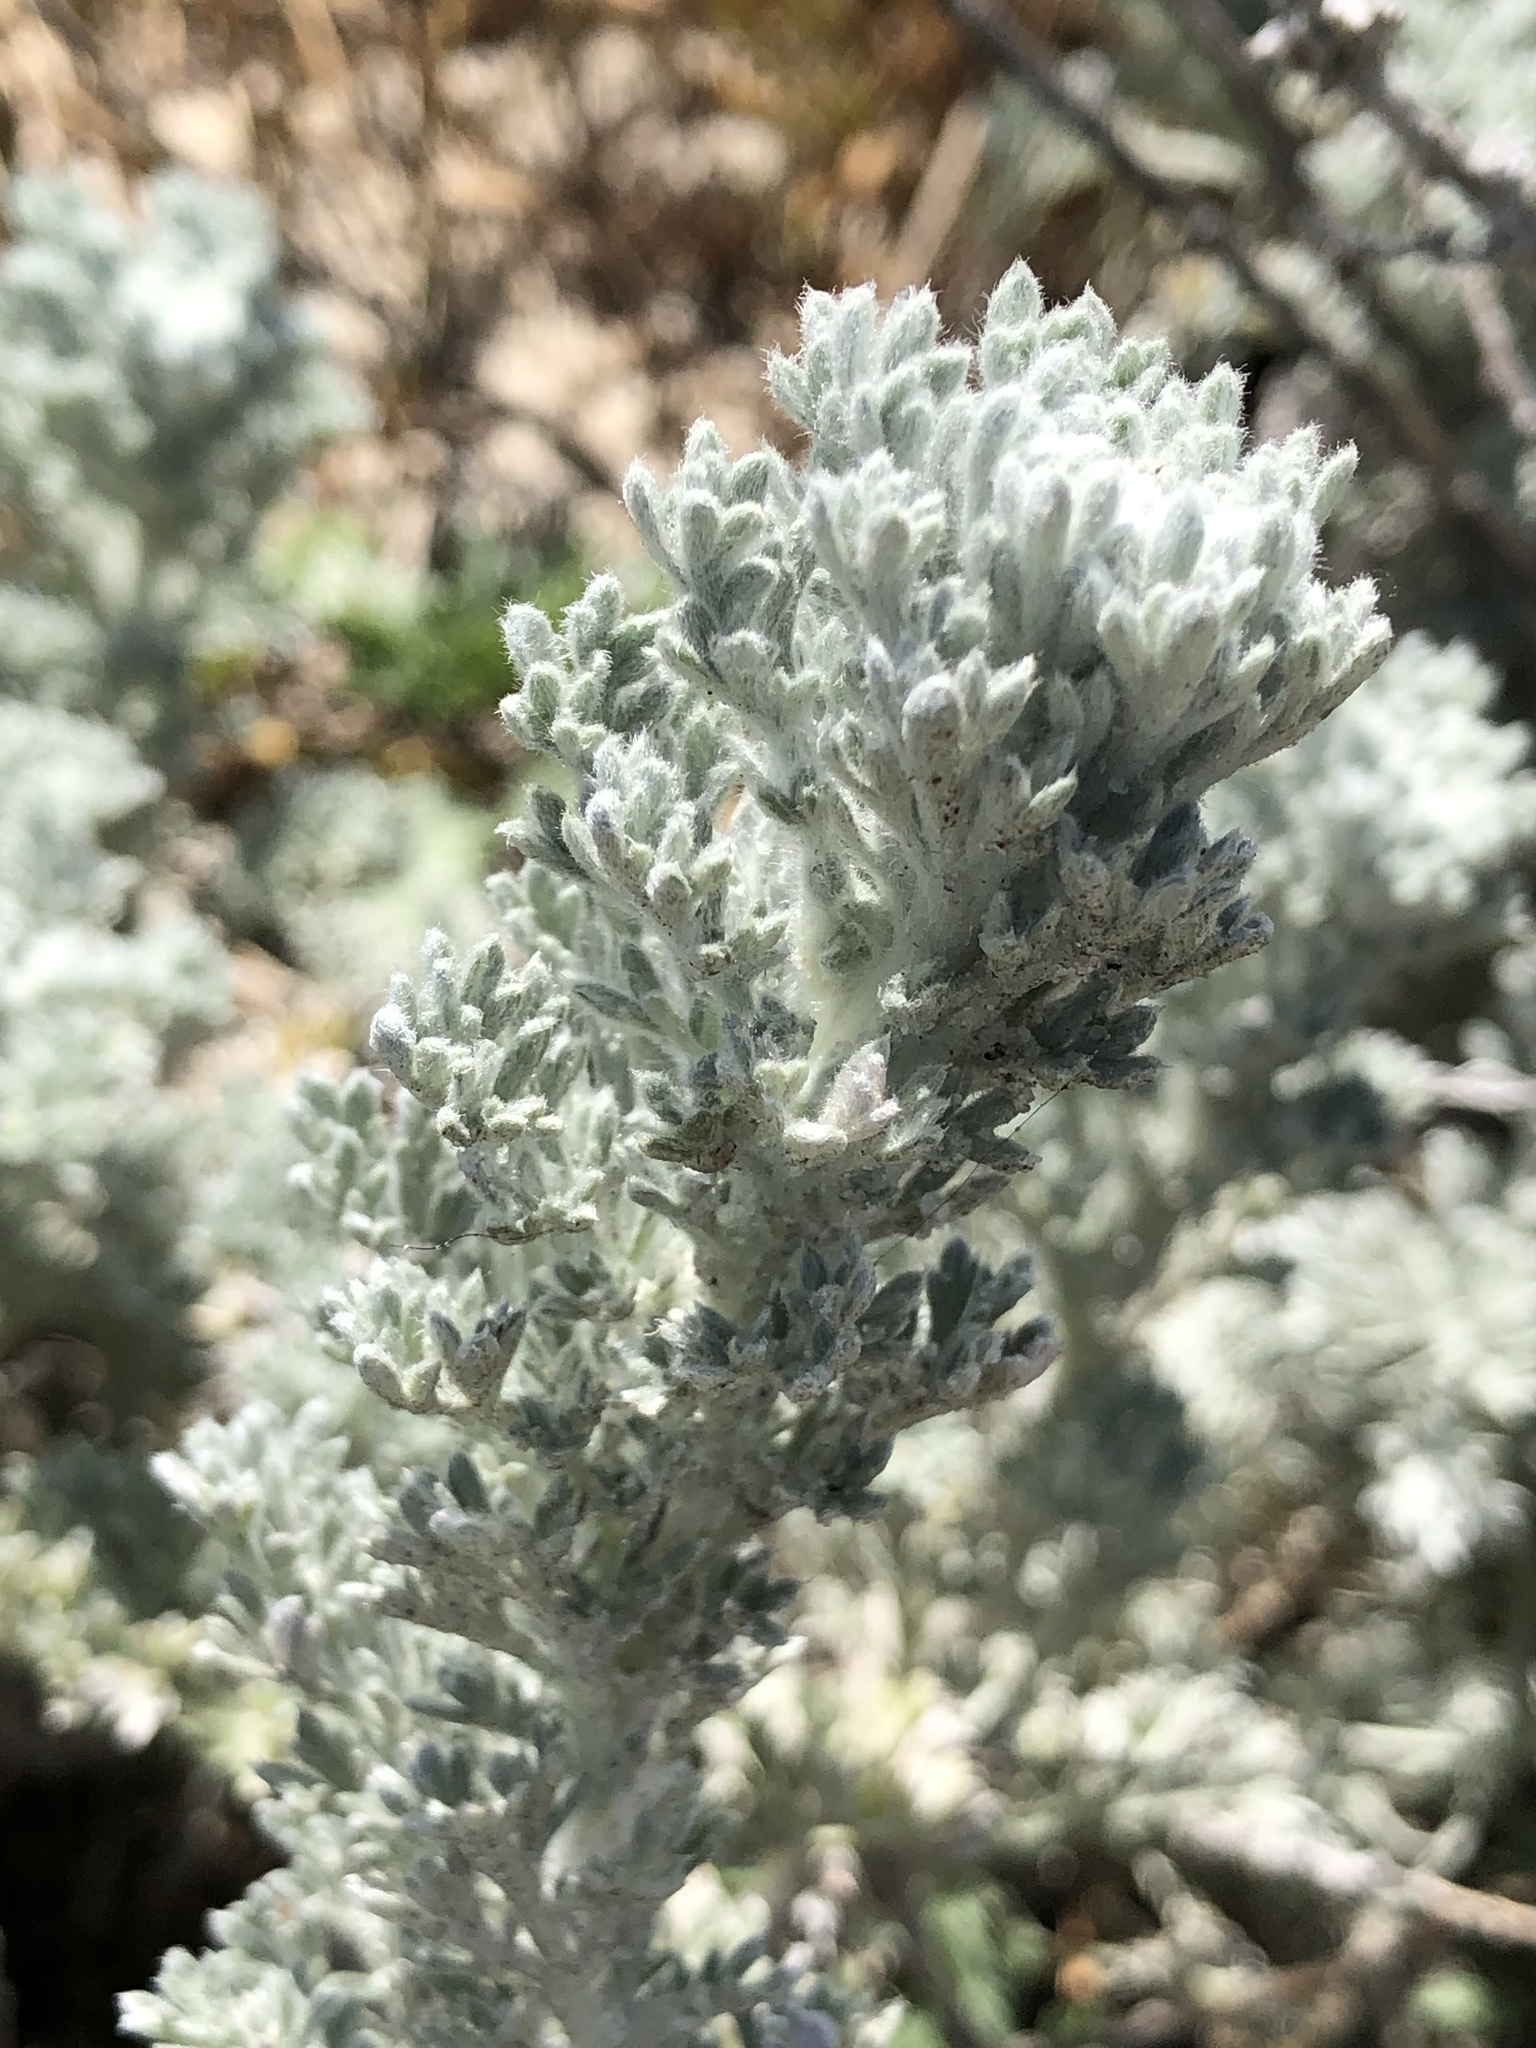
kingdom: Plantae
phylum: Tracheophyta
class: Magnoliopsida
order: Asterales
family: Asteraceae
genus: Artemisia
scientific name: Artemisia pycnocephala
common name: Coastal sagewort
